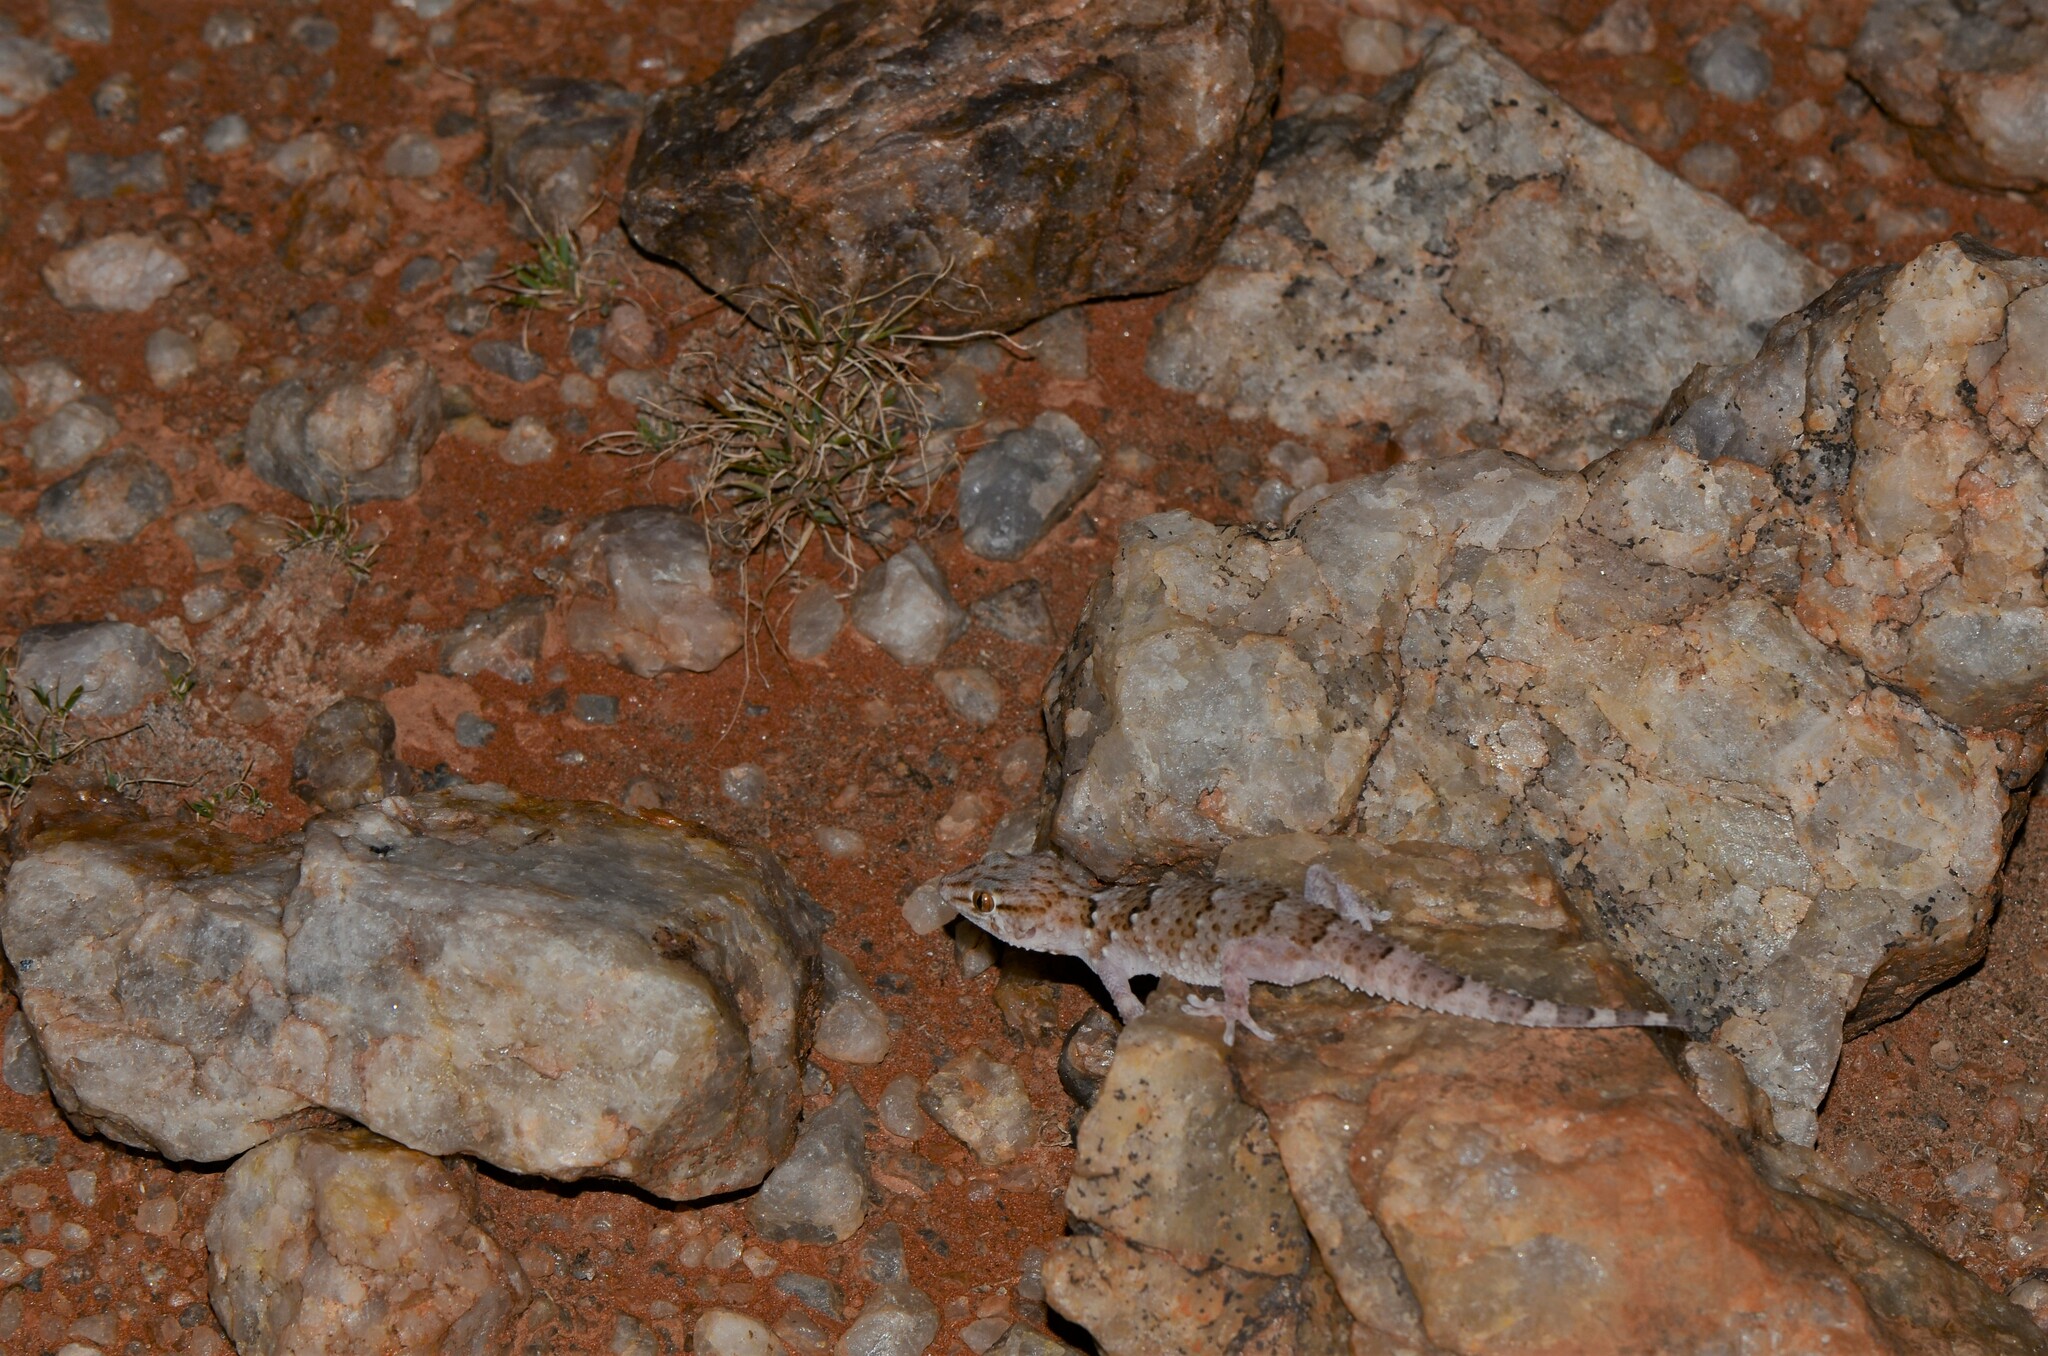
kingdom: Animalia
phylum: Chordata
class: Squamata
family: Gekkonidae
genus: Chondrodactylus
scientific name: Chondrodactylus laevigatus
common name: Fischer's thick-toed gecko
